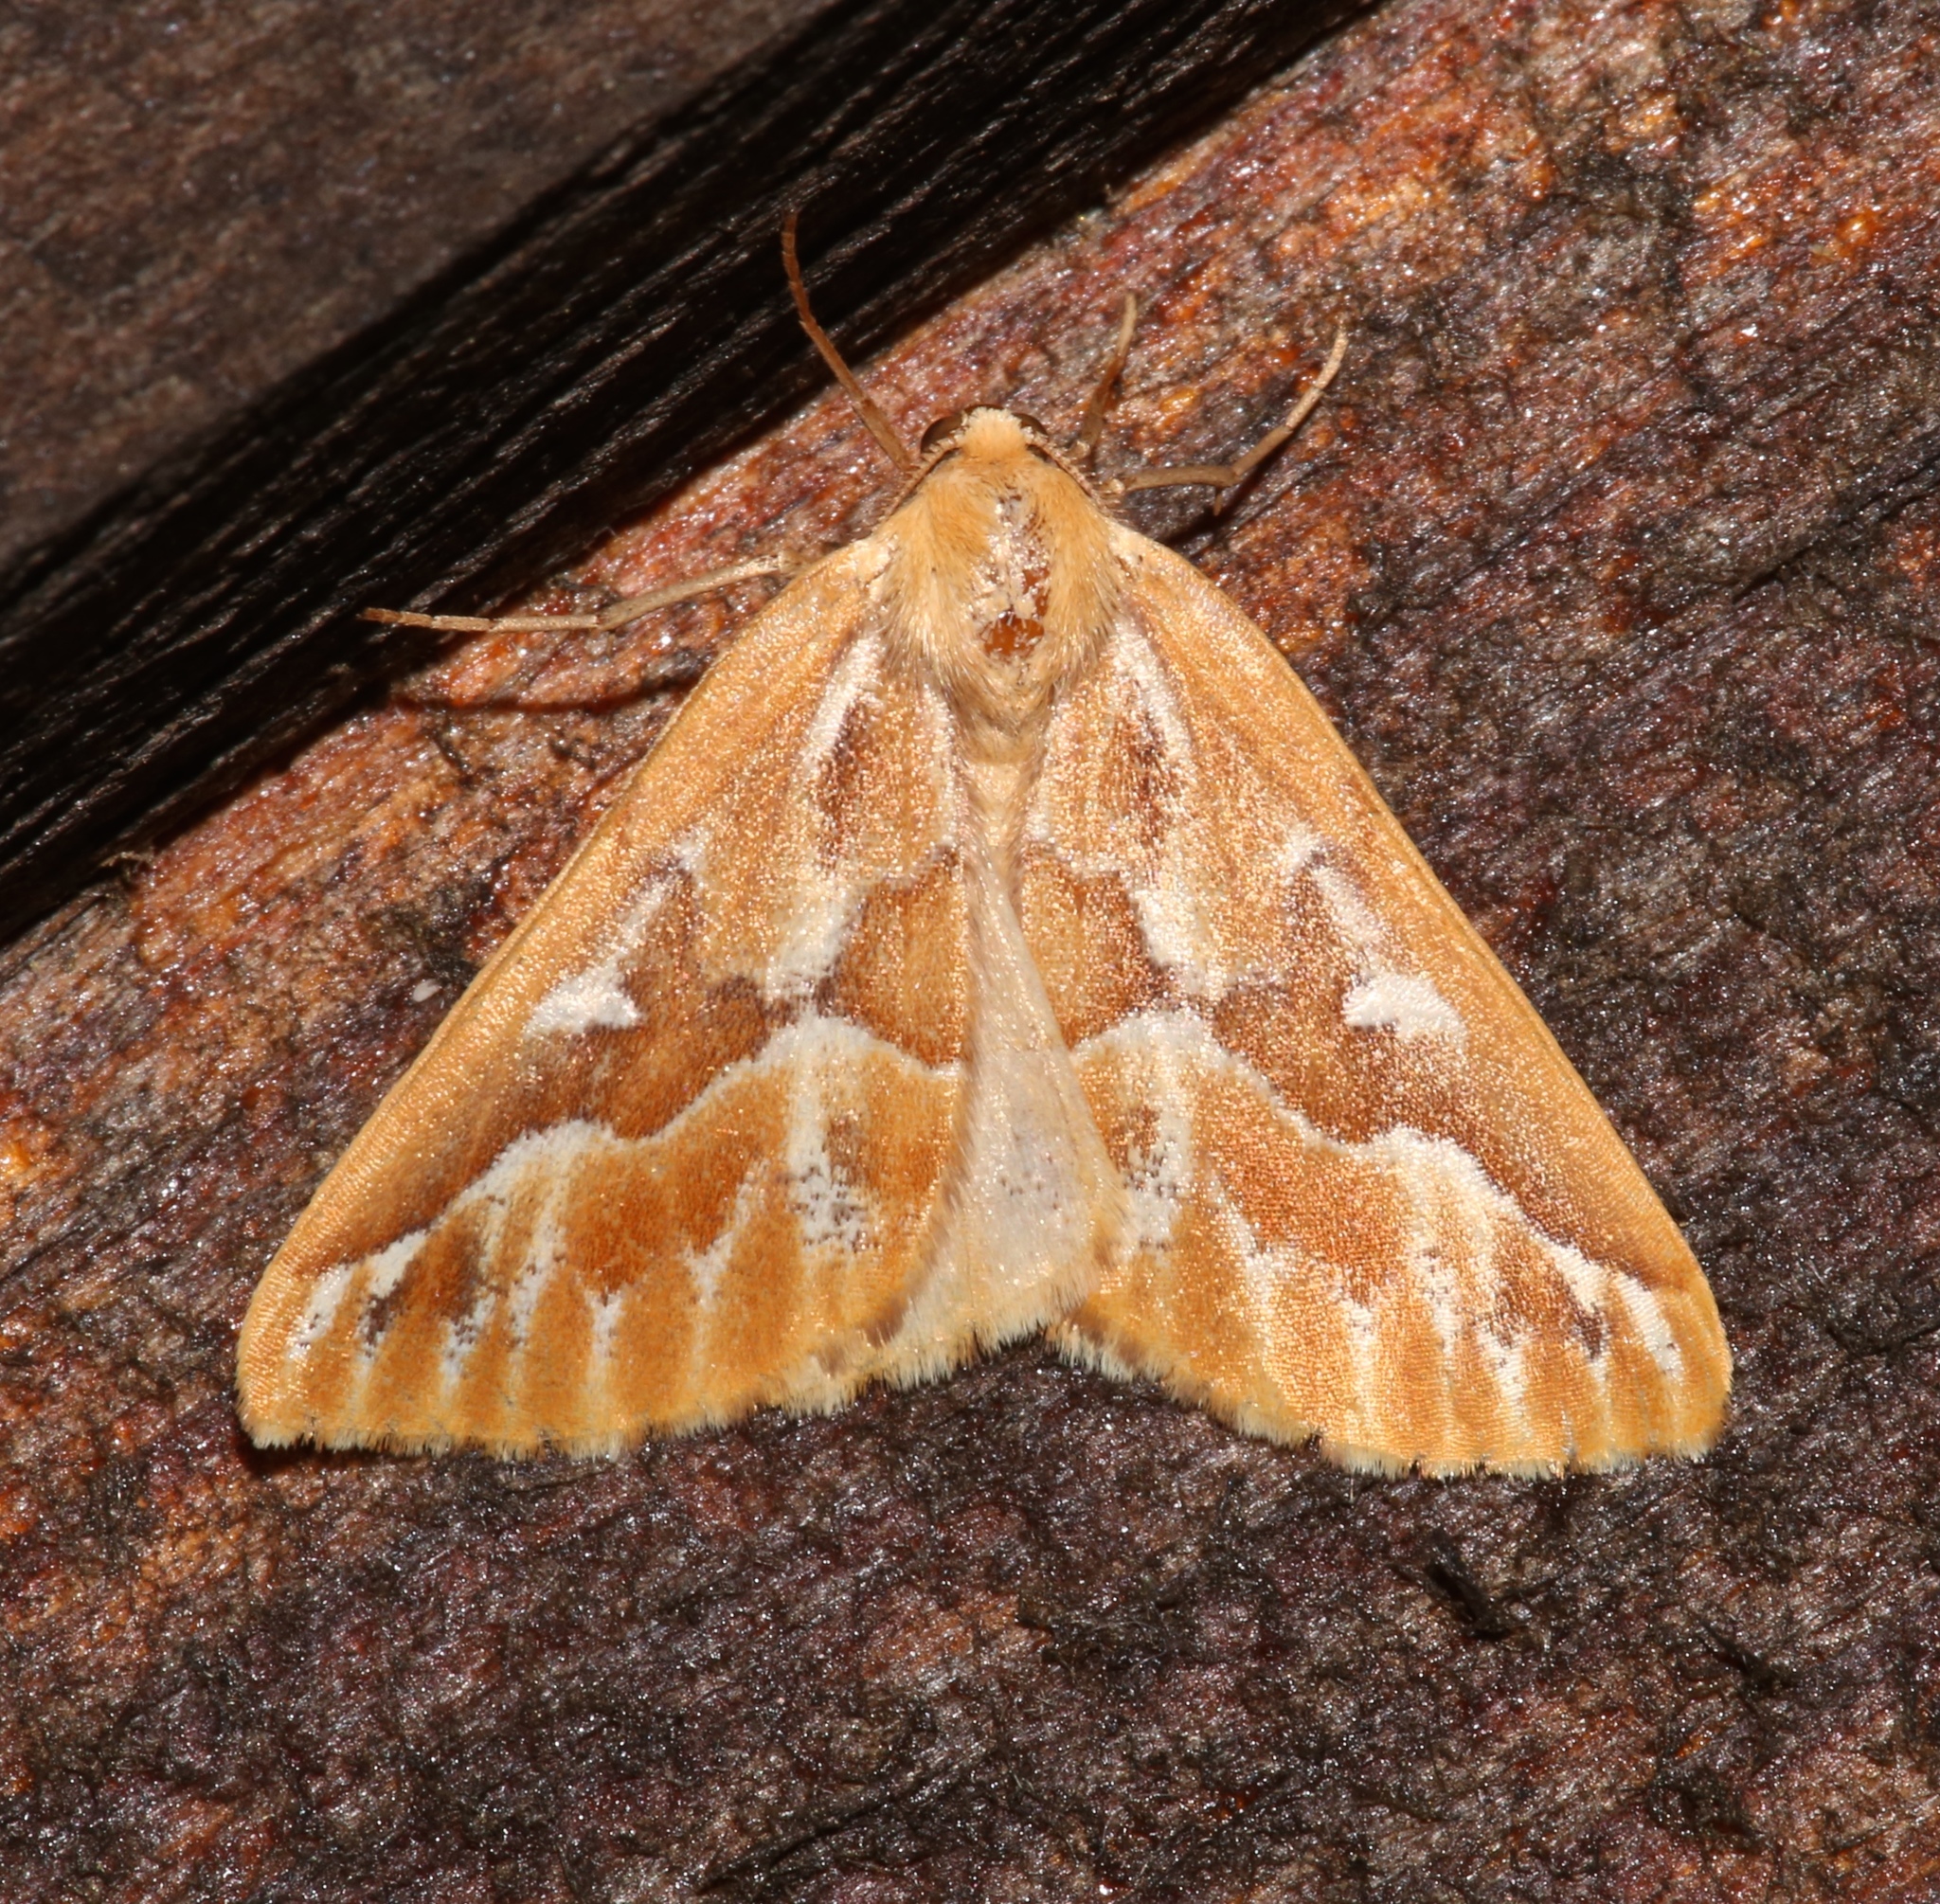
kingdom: Animalia
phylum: Arthropoda
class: Insecta
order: Lepidoptera
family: Geometridae
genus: Caripeta
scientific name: Caripeta piniata
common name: Northern pine looper moth
